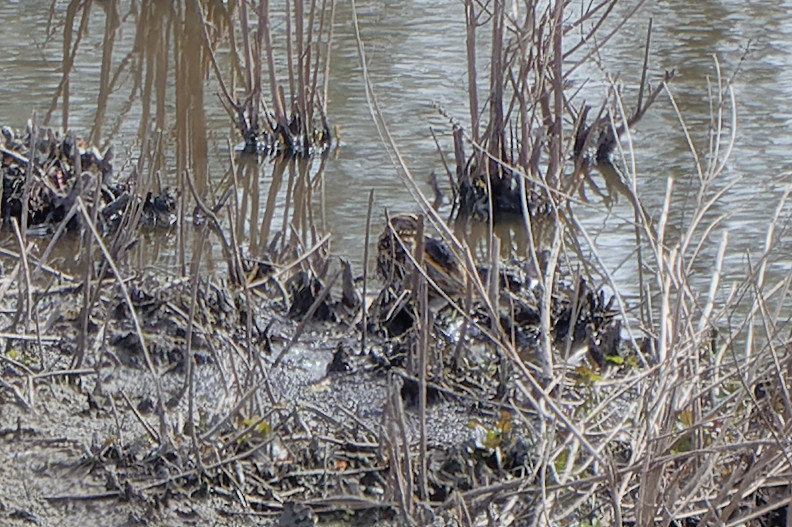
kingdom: Animalia
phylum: Chordata
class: Aves
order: Charadriiformes
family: Scolopacidae
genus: Lymnocryptes
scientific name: Lymnocryptes minimus
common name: Jack snipe
